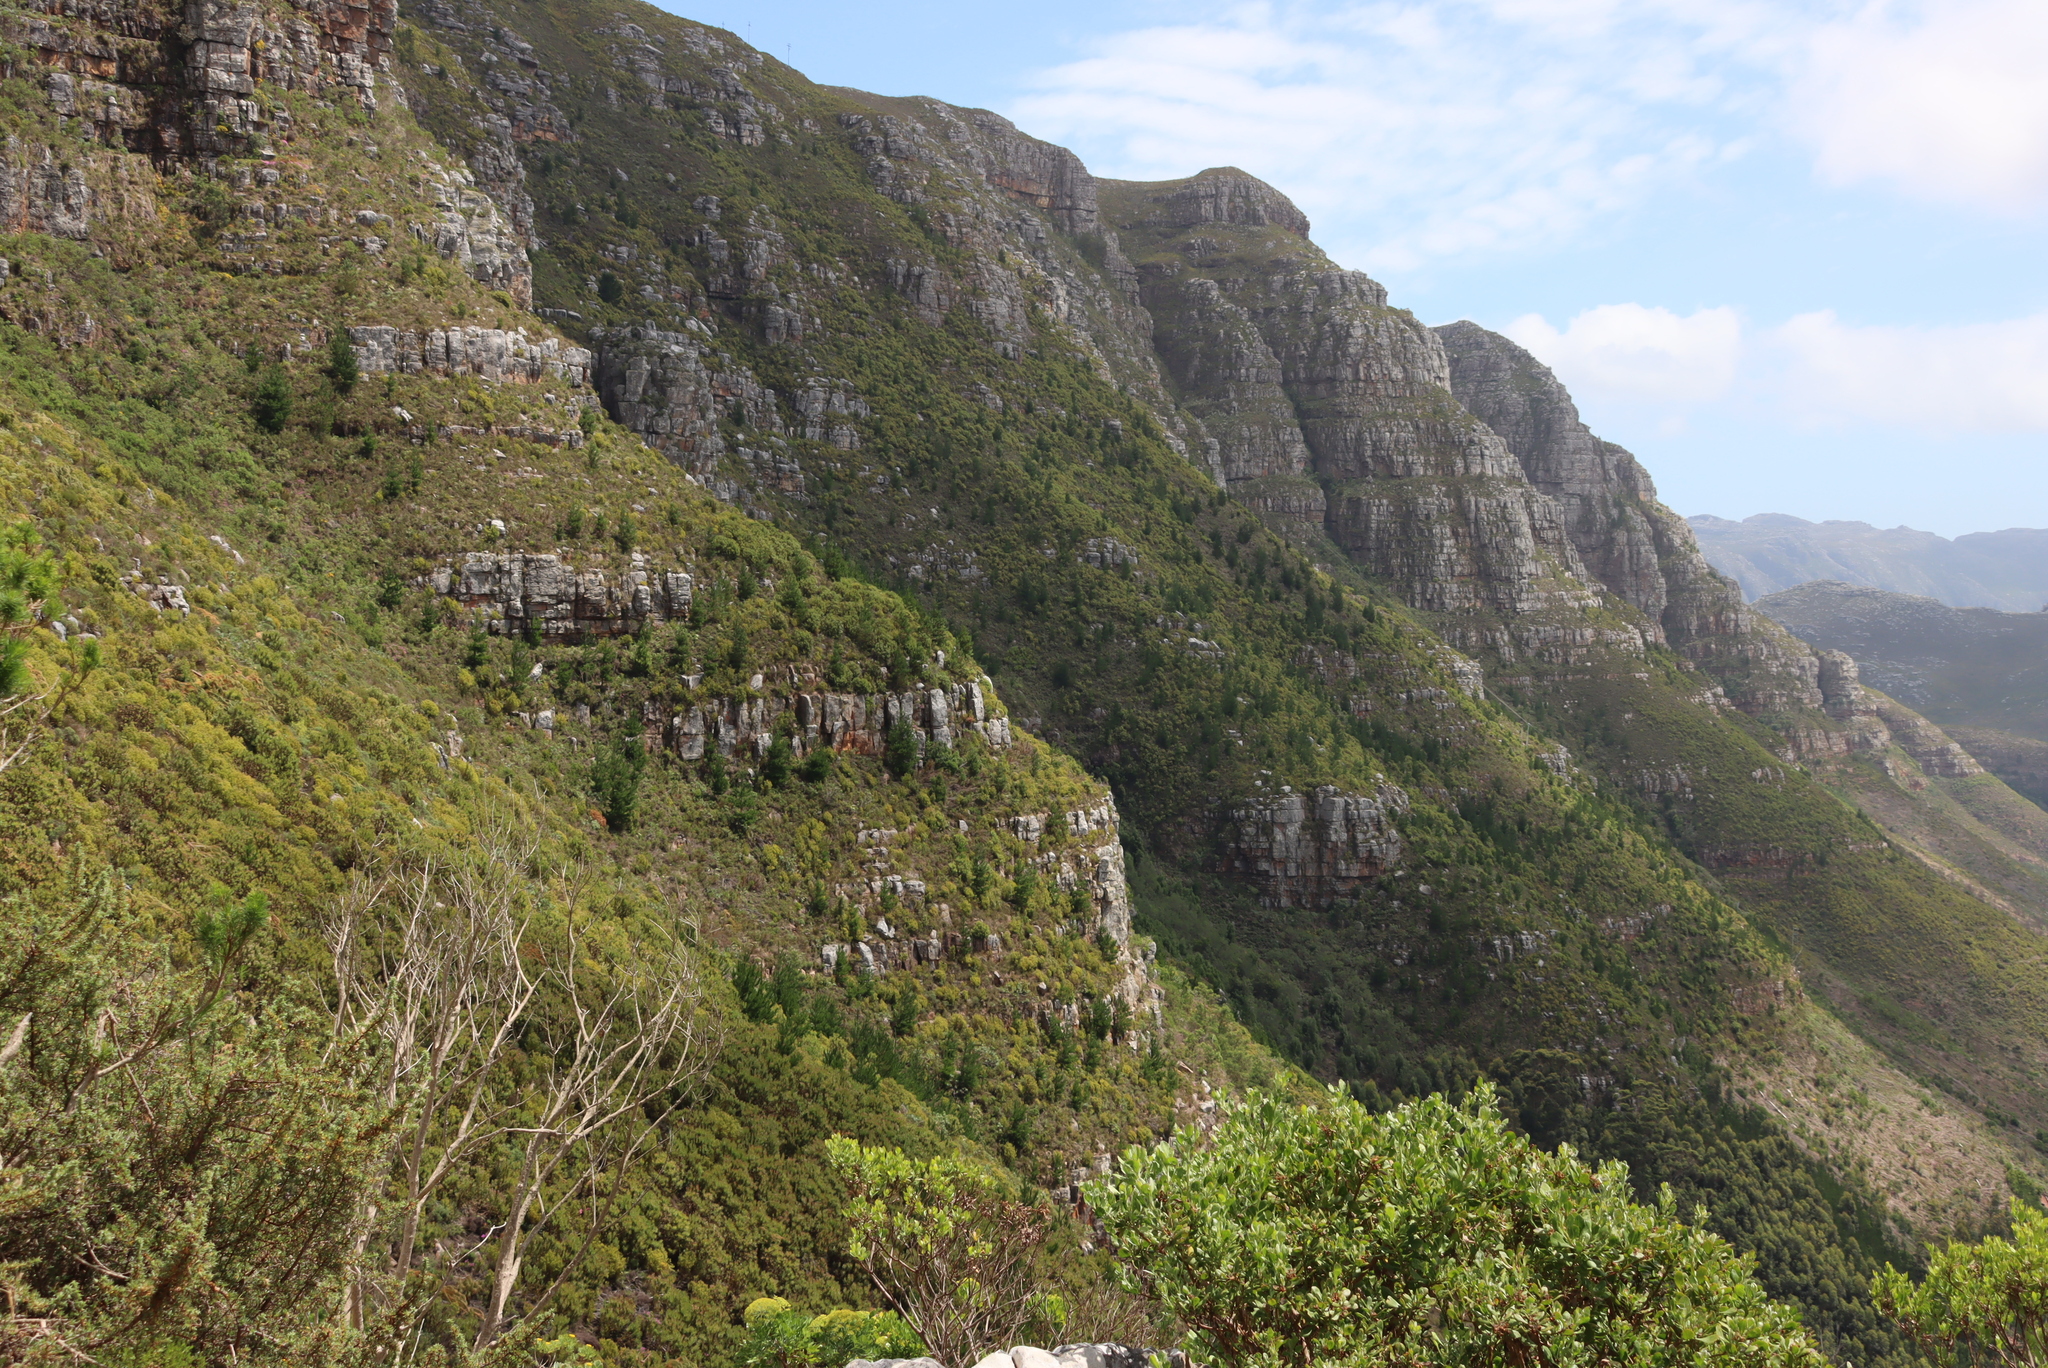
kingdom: Plantae
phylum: Tracheophyta
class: Pinopsida
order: Pinales
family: Pinaceae
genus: Pinus
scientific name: Pinus radiata
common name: Monterey pine
